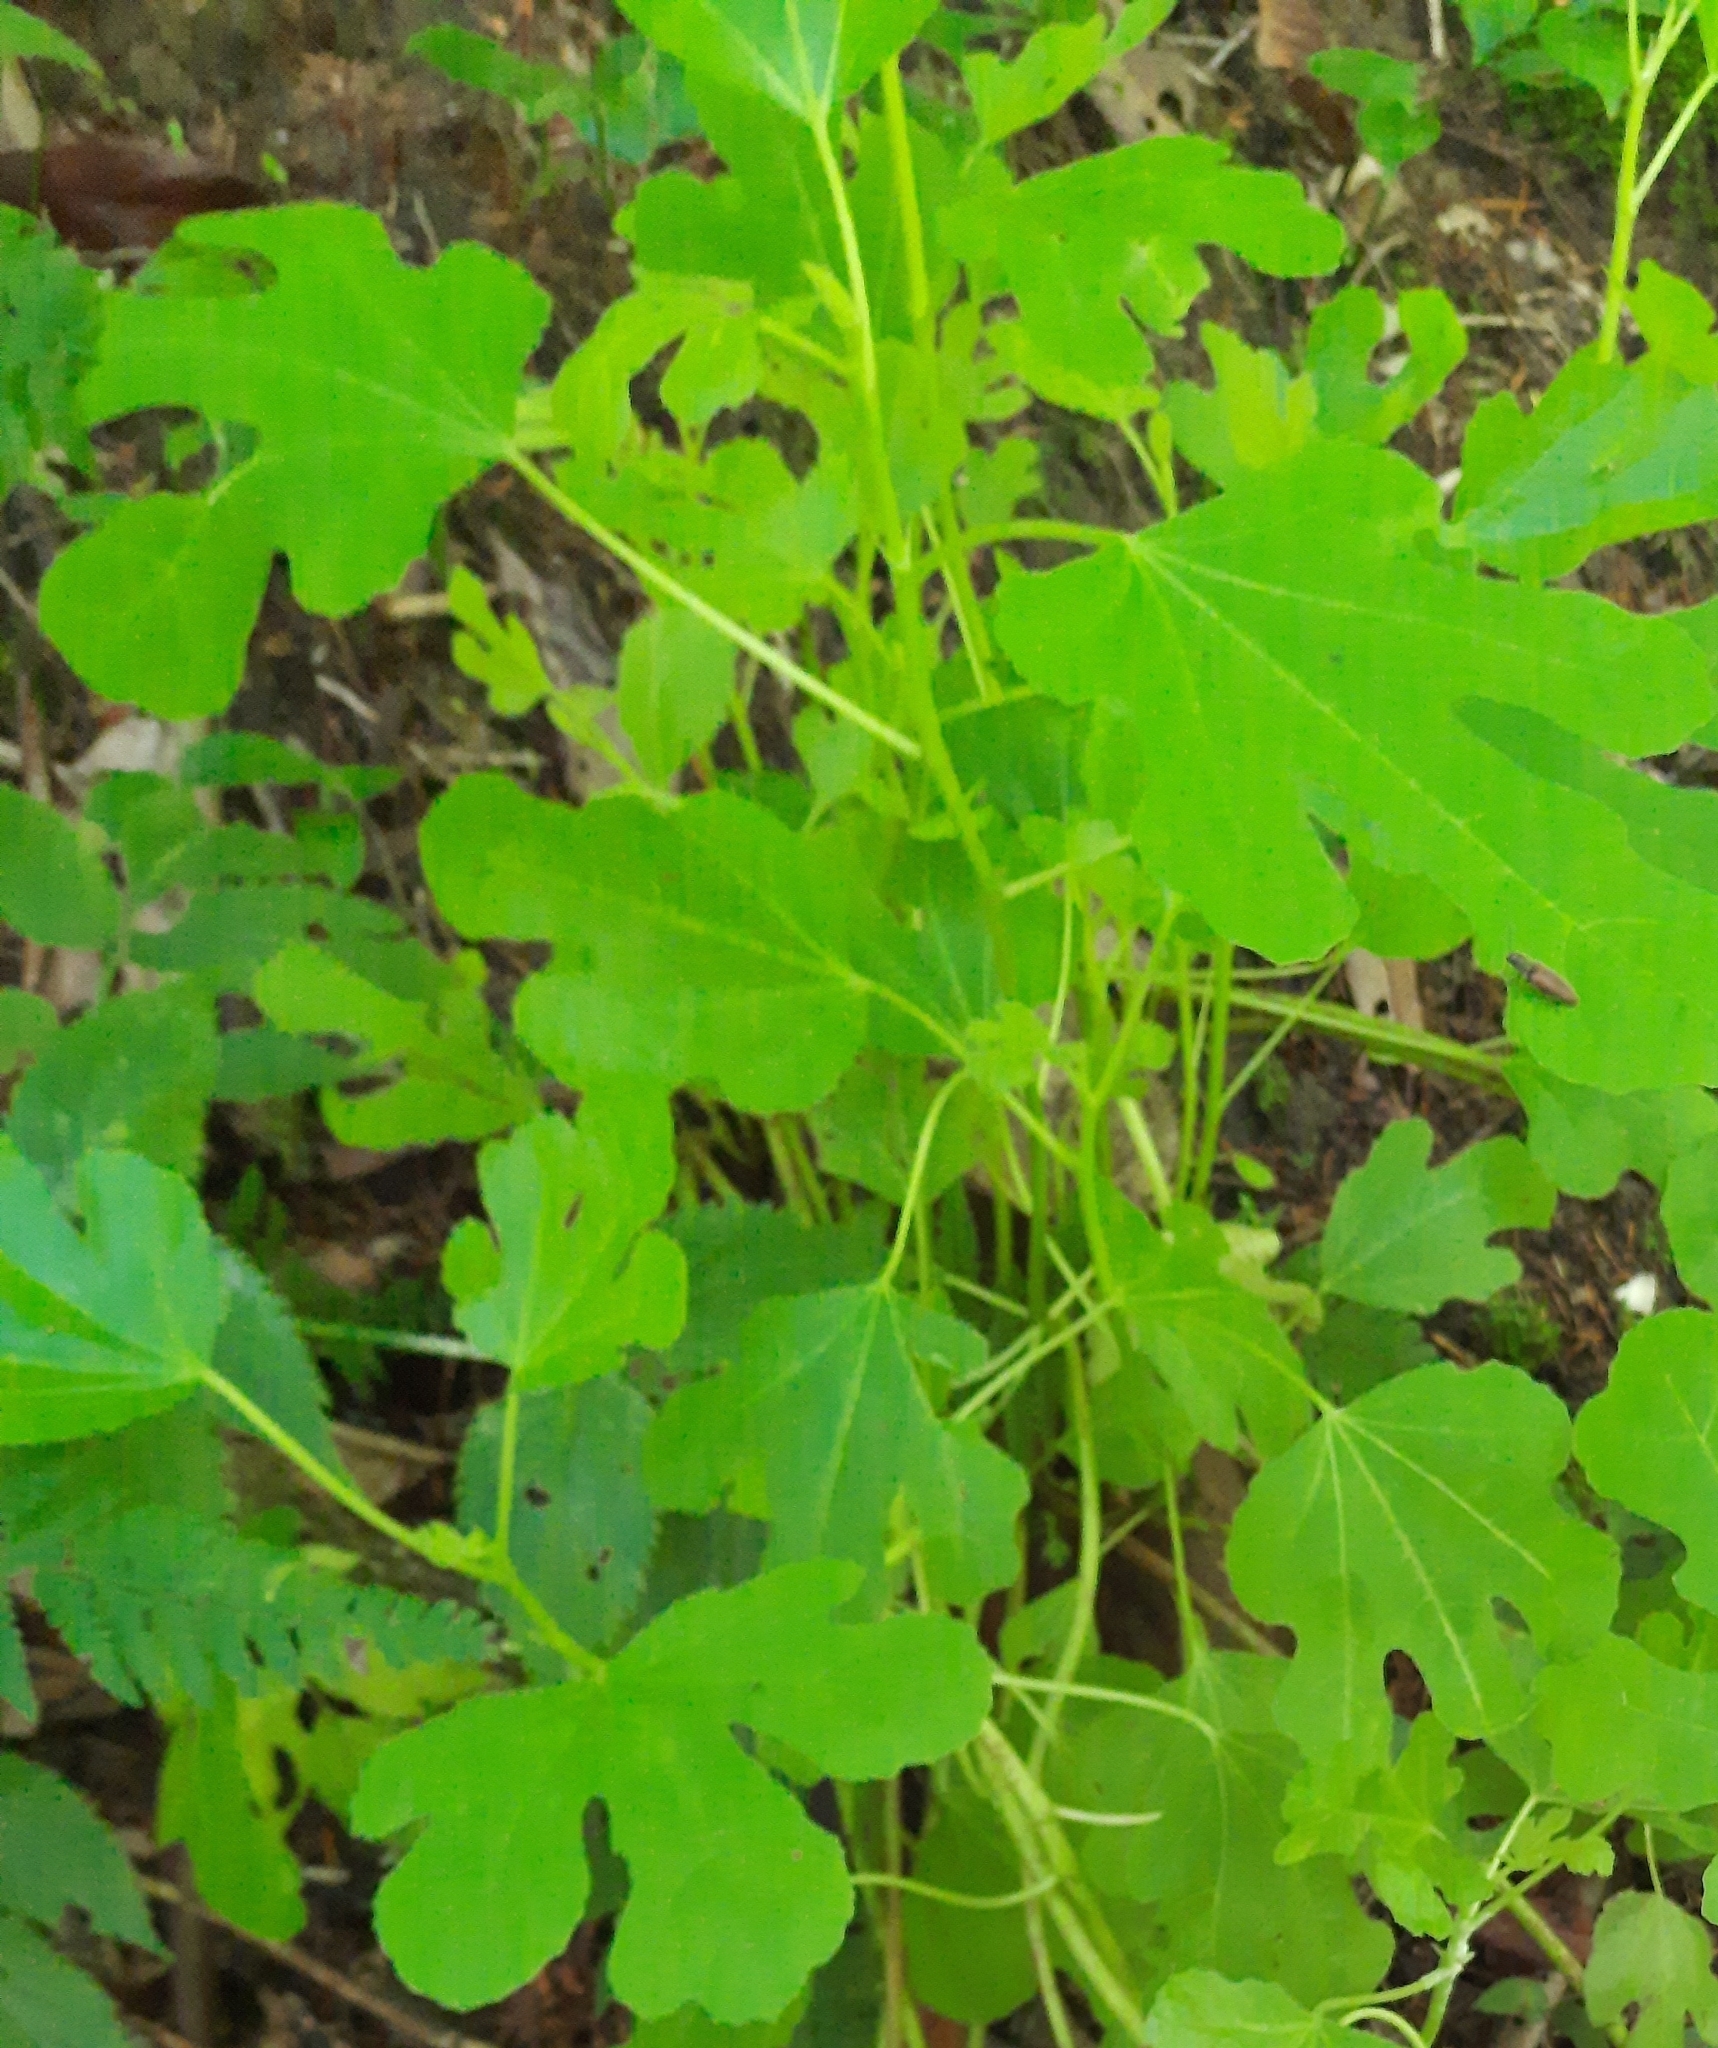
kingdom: Plantae
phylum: Tracheophyta
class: Magnoliopsida
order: Rosales
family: Moraceae
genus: Ficus
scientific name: Ficus carica
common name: Fig
